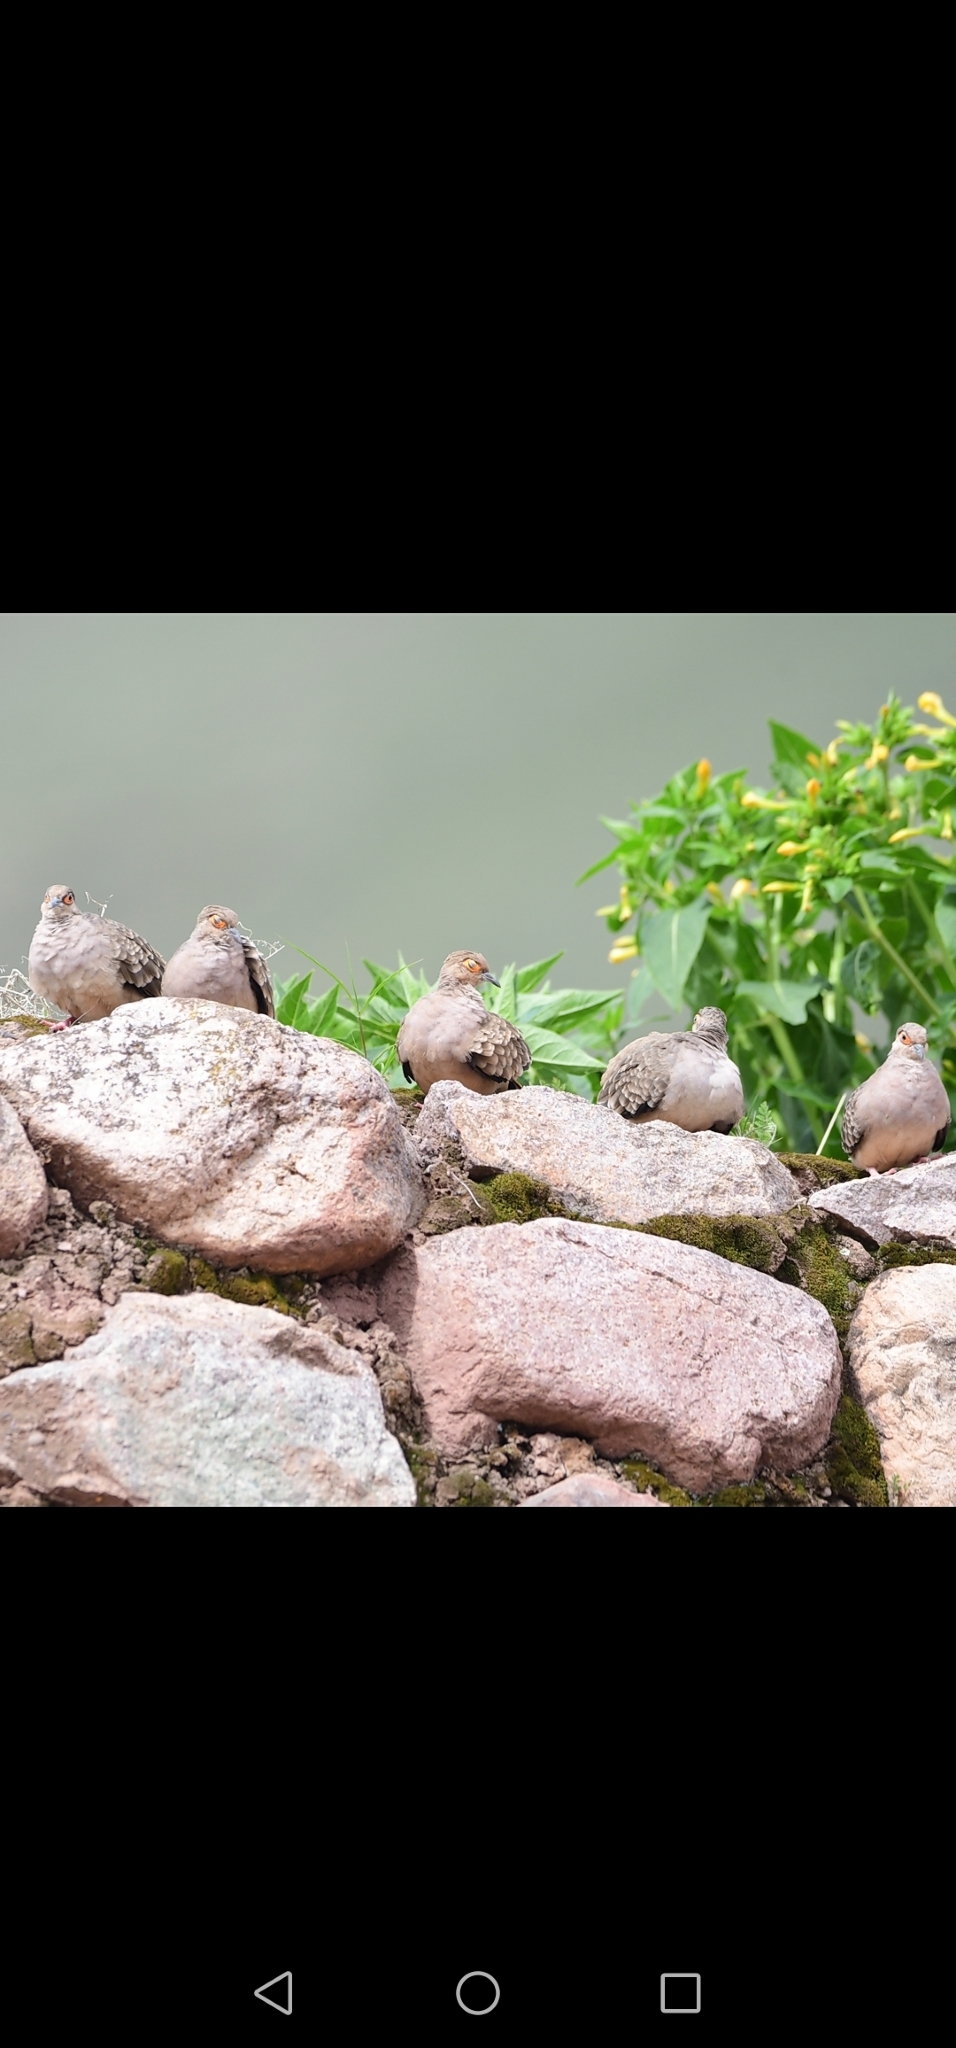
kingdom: Animalia
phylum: Chordata
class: Aves
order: Columbiformes
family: Columbidae
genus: Metriopelia
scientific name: Metriopelia ceciliae
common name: Bare-faced ground dove
